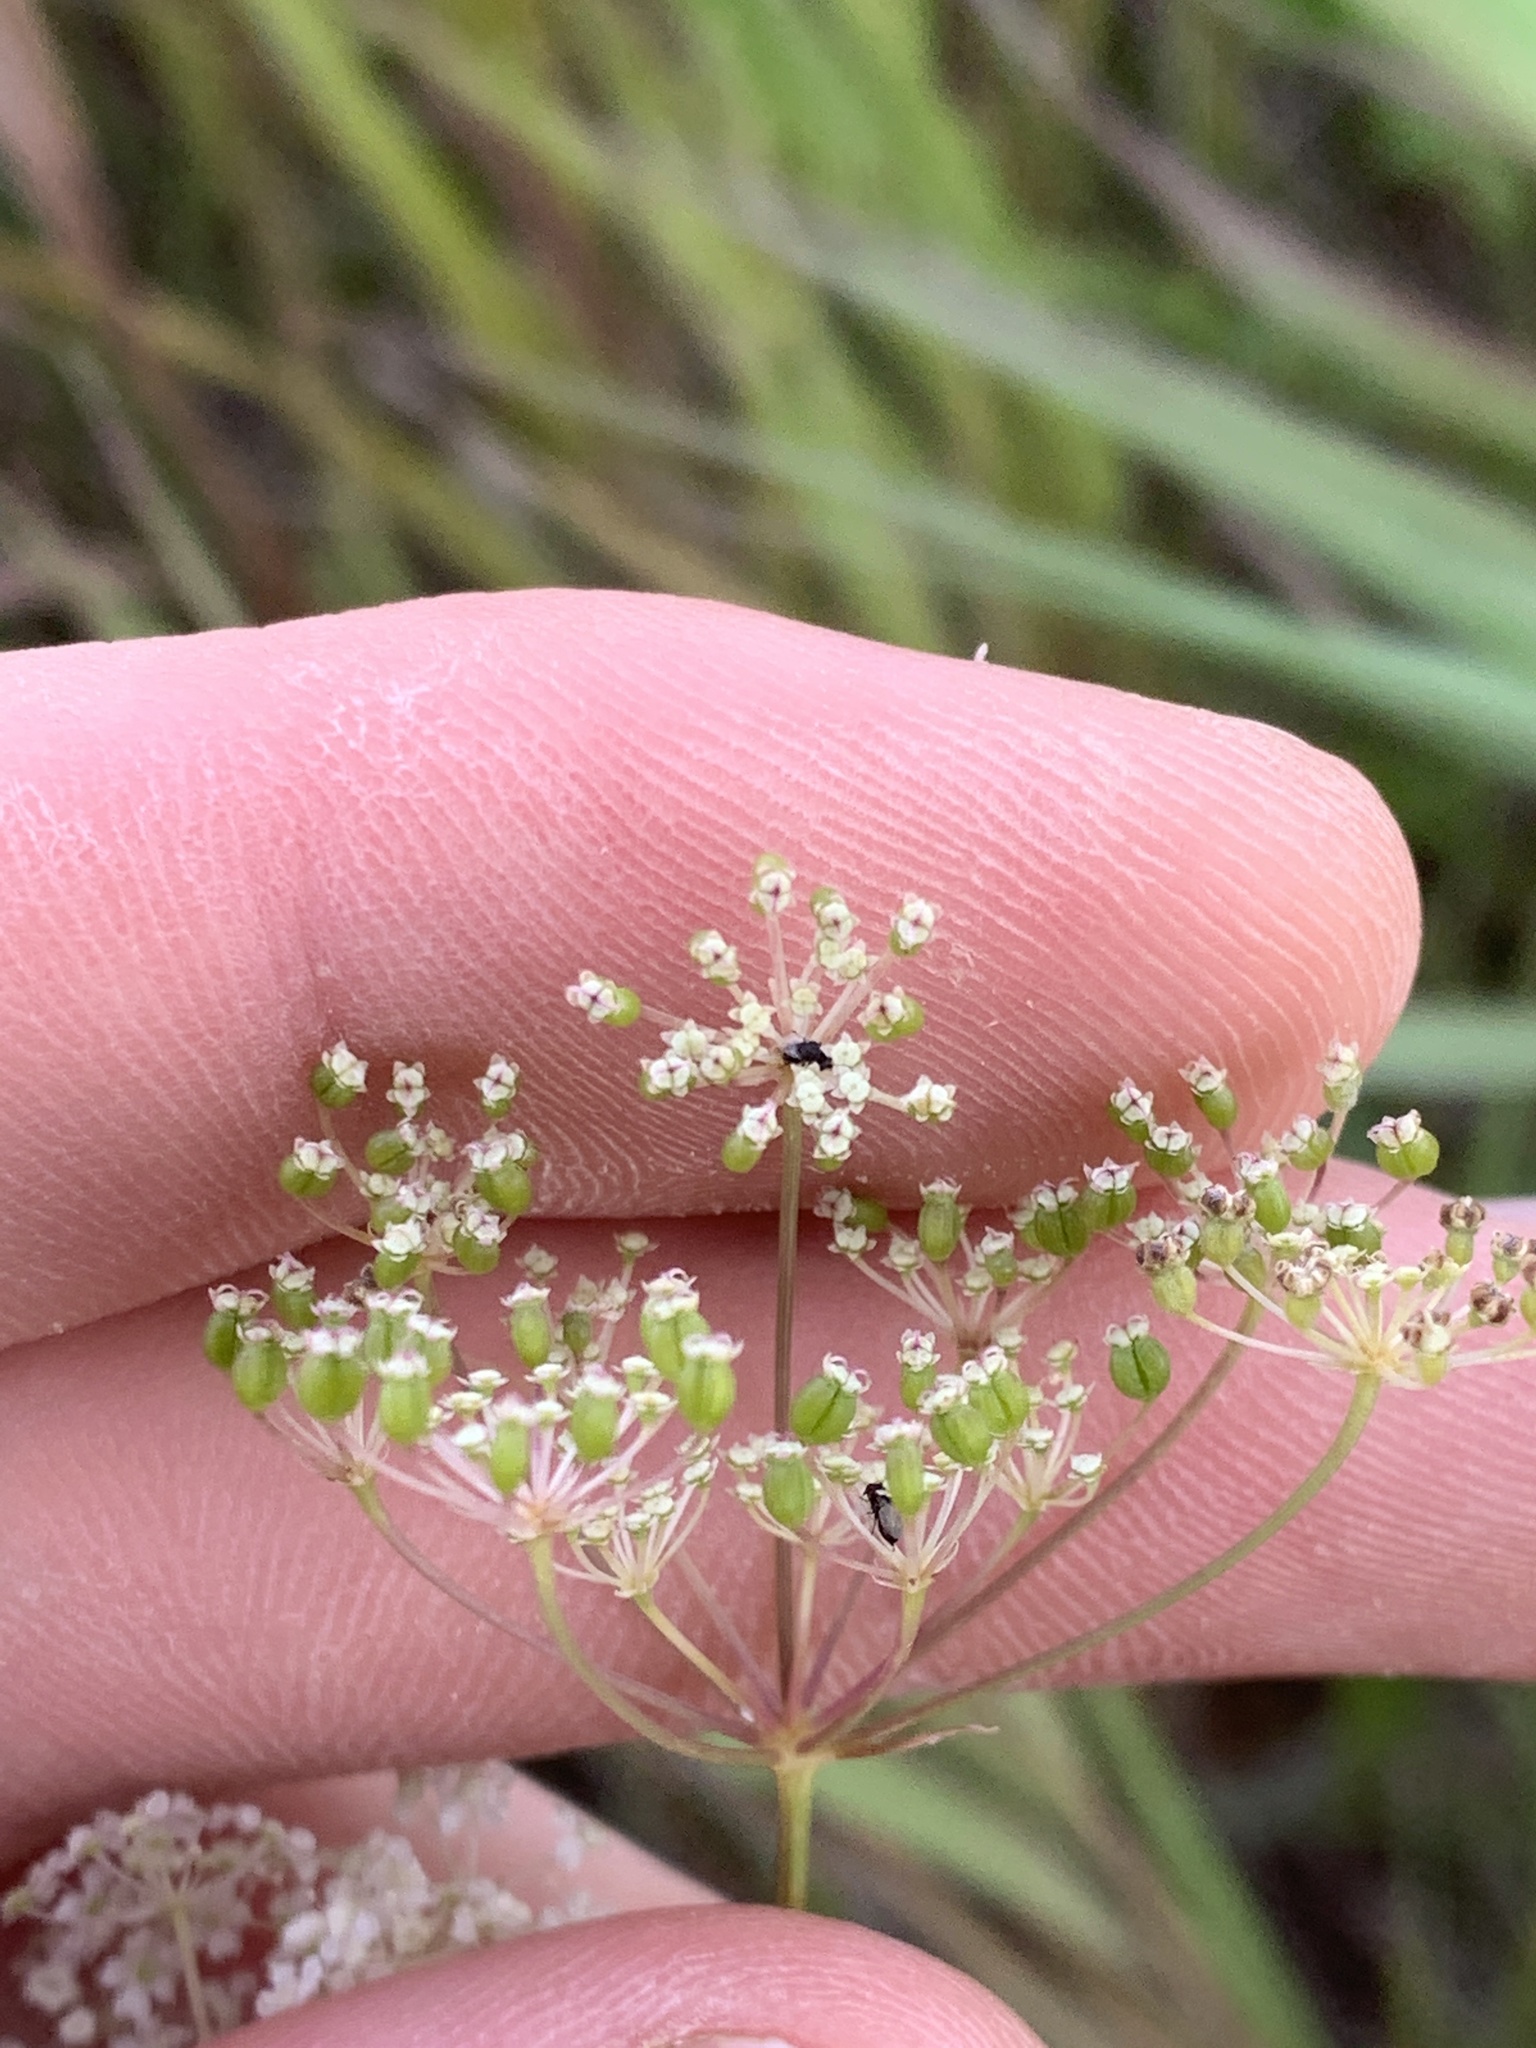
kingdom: Plantae
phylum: Tracheophyta
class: Magnoliopsida
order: Apiales
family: Apiaceae
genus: Perideridia
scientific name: Perideridia gairdneri
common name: False caraway
